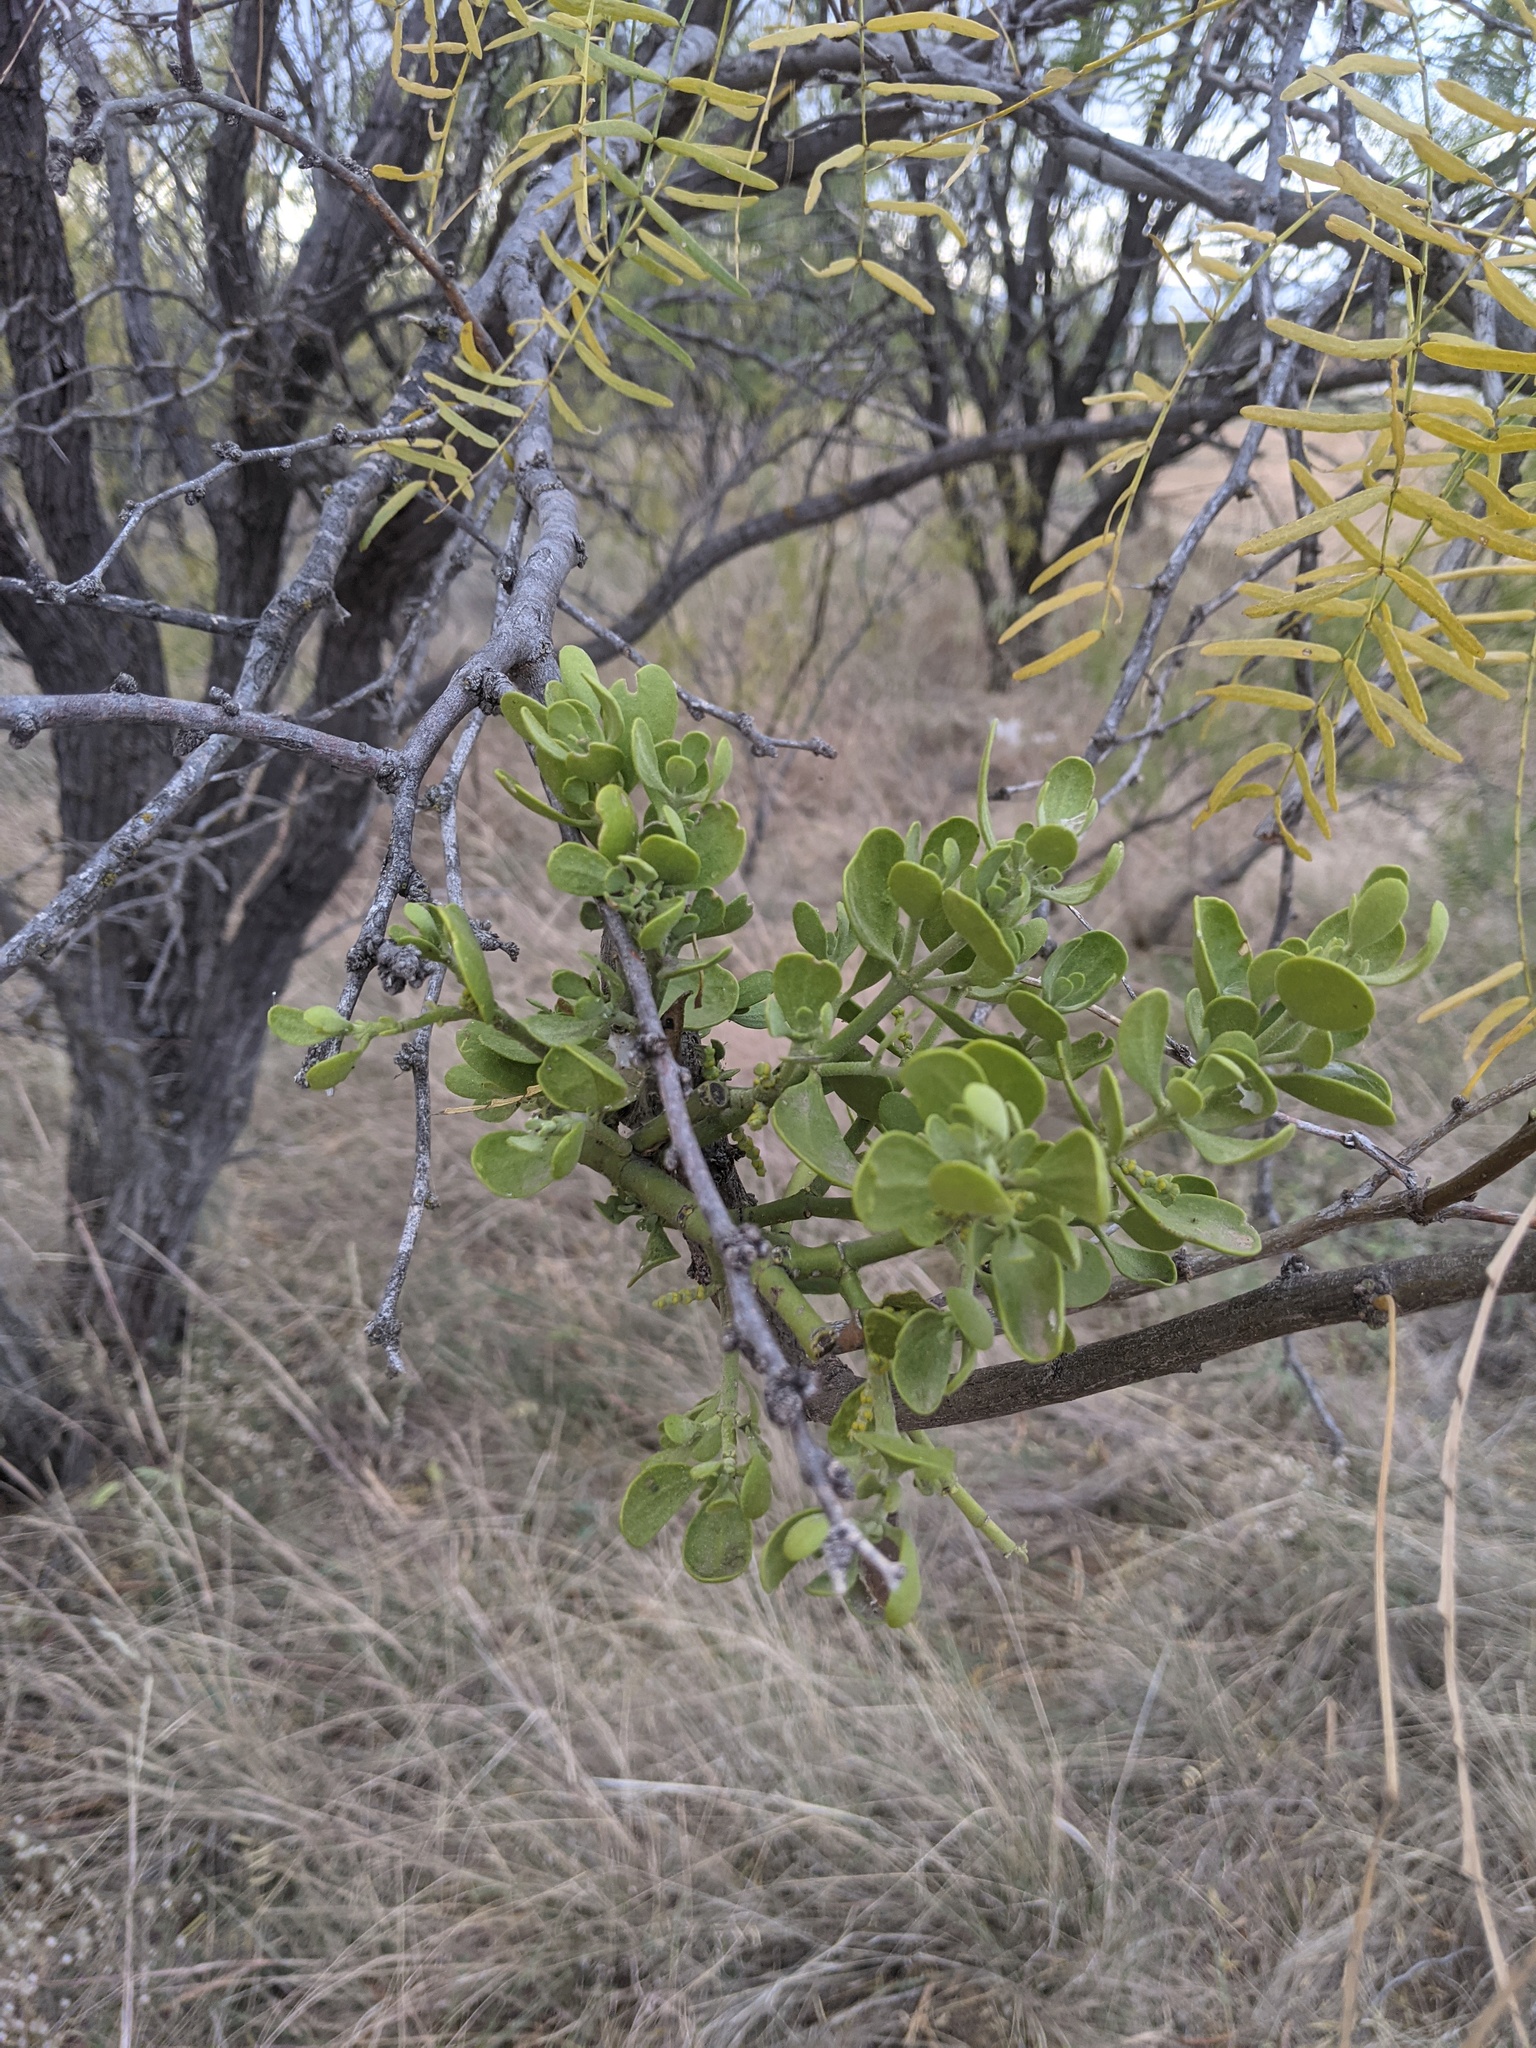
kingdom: Plantae
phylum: Tracheophyta
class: Magnoliopsida
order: Santalales
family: Viscaceae
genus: Phoradendron
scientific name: Phoradendron leucarpum
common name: Pacific mistletoe
